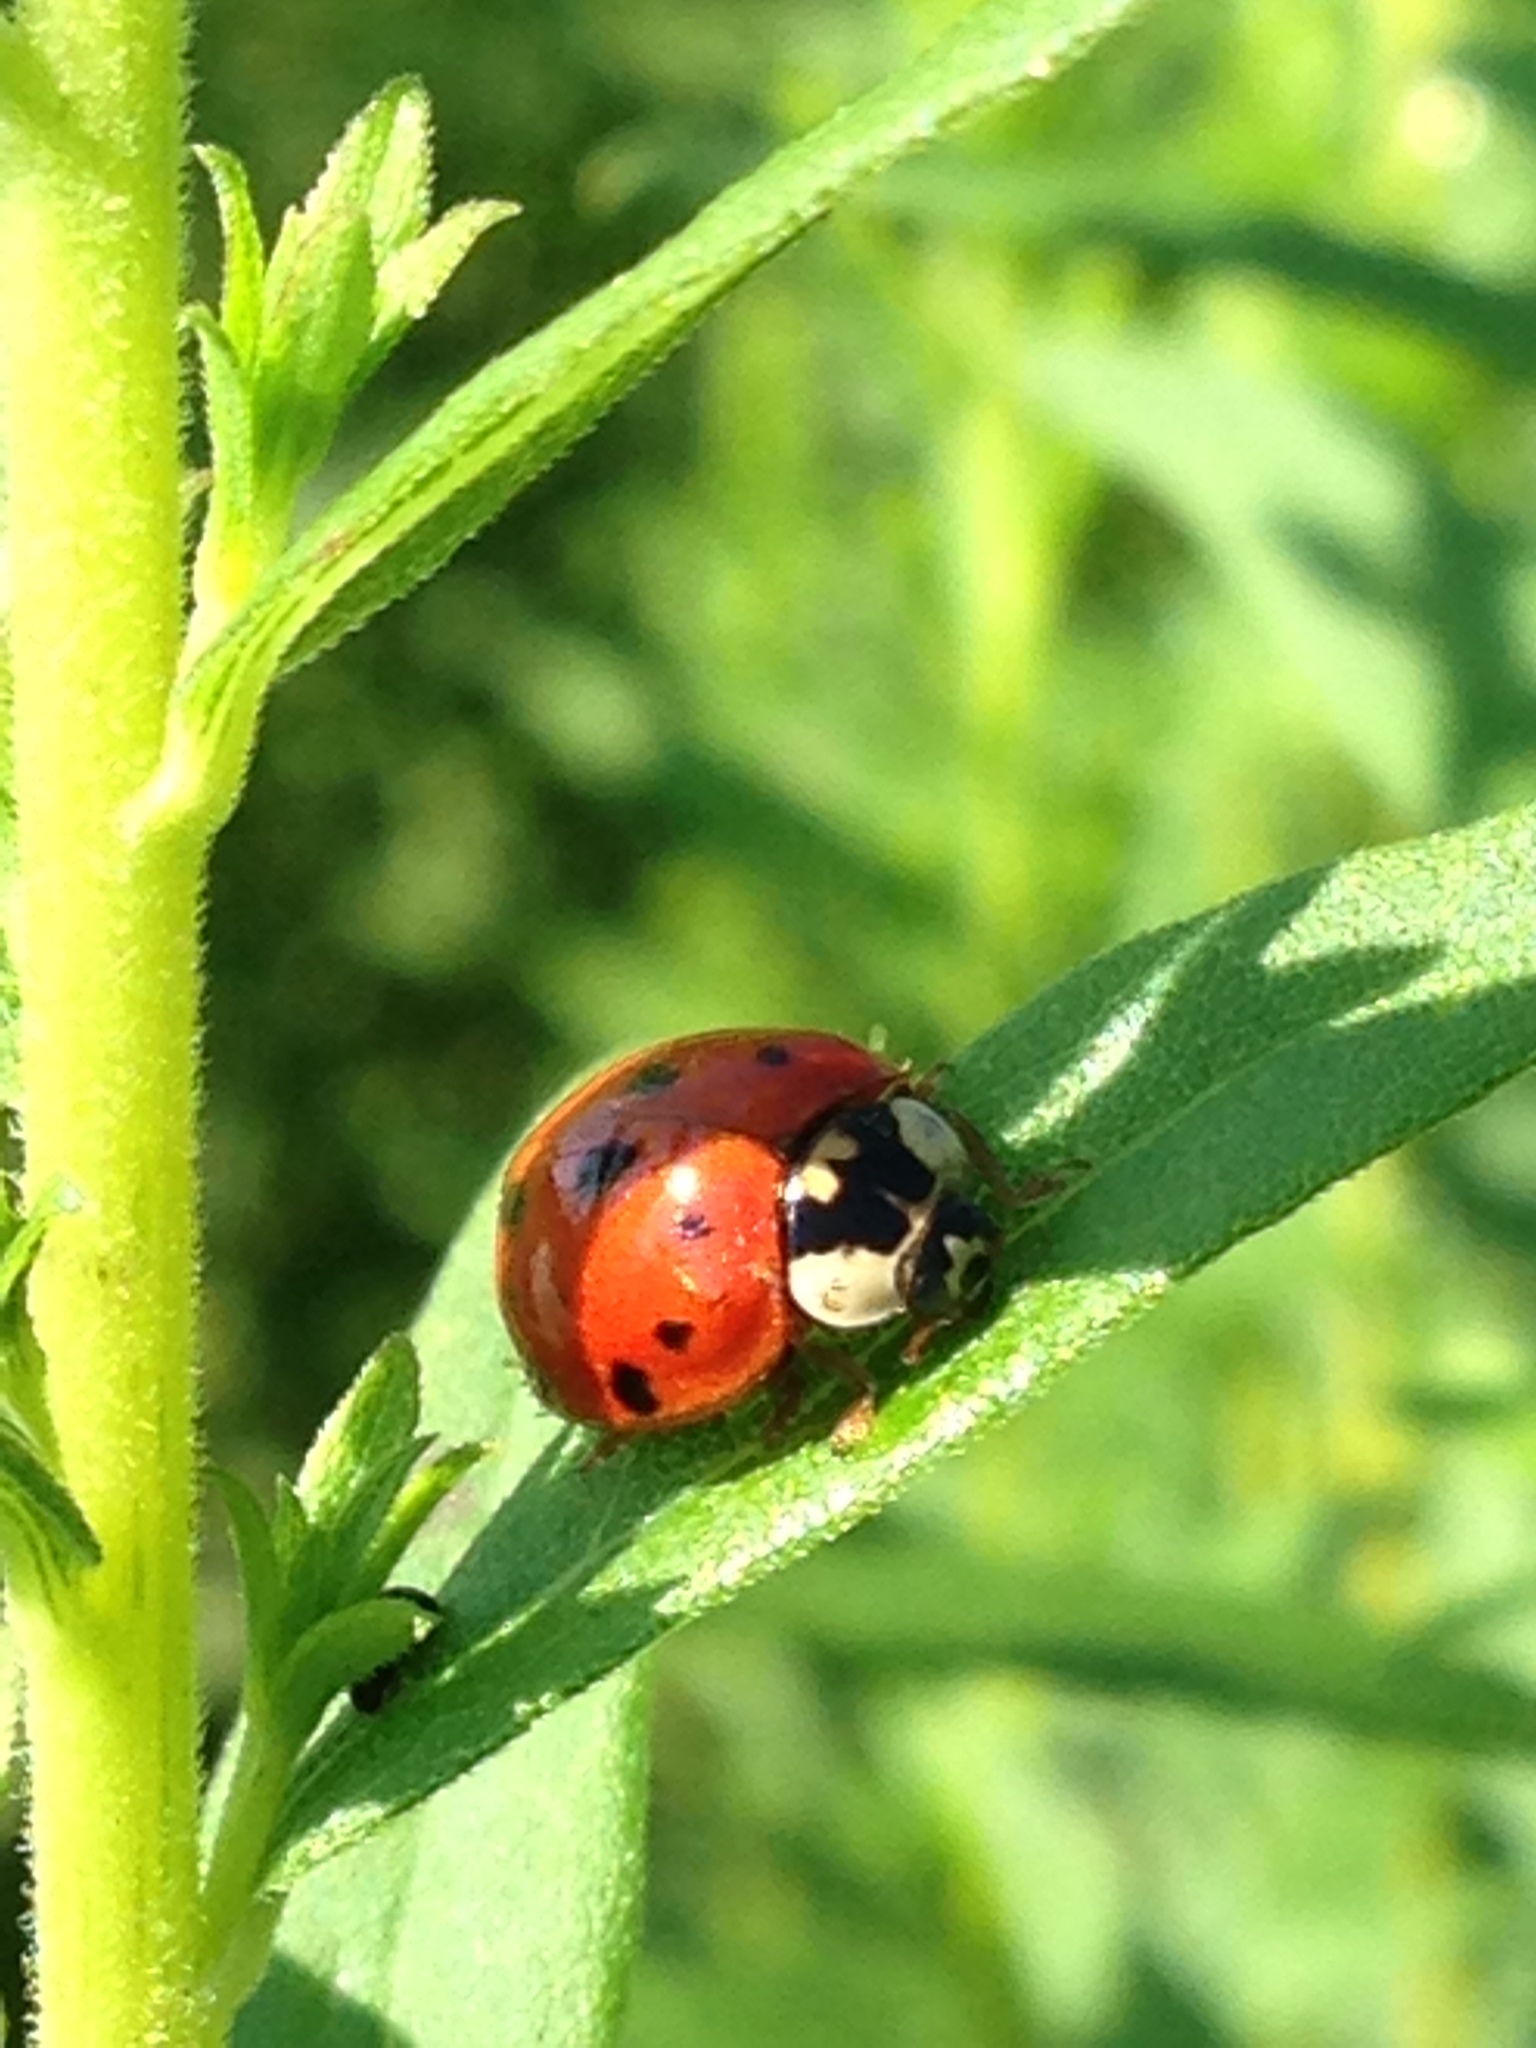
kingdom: Animalia
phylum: Arthropoda
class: Insecta
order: Coleoptera
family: Coccinellidae
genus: Harmonia
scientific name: Harmonia axyridis
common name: Harlequin ladybird
